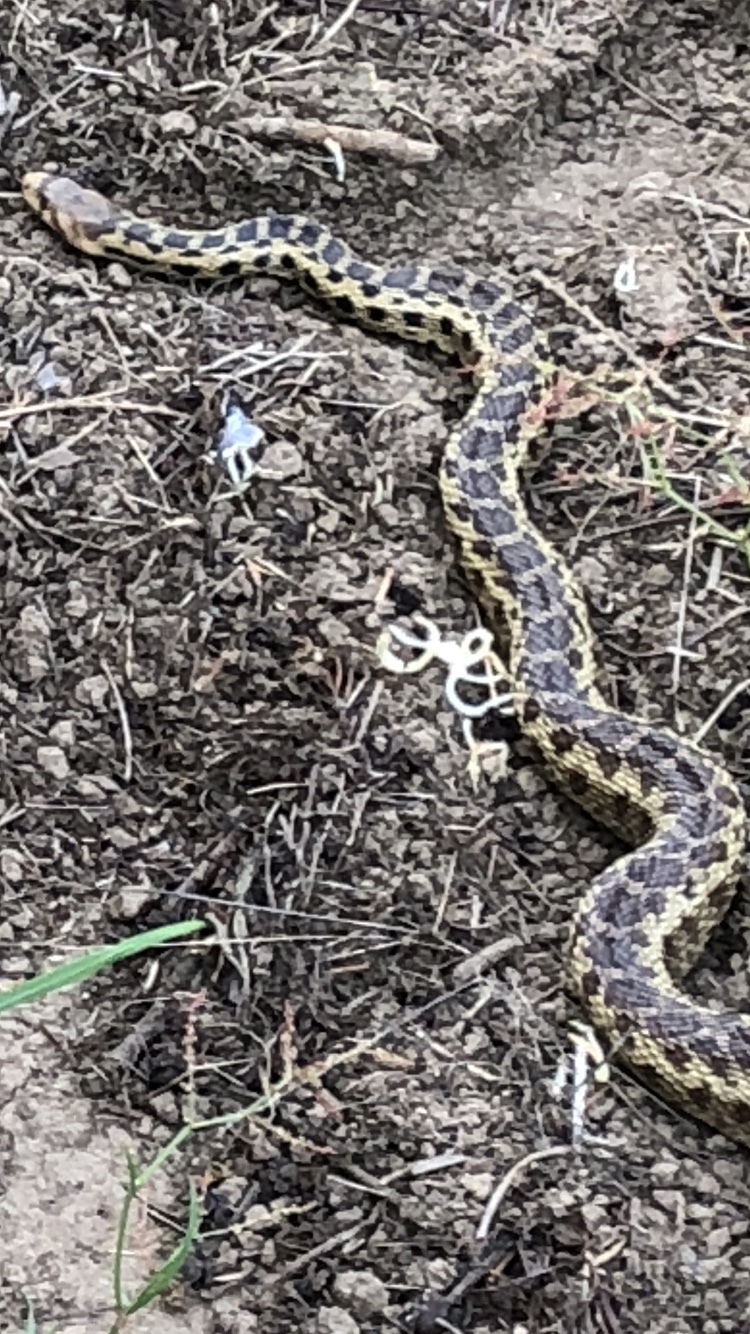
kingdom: Animalia
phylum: Chordata
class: Squamata
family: Colubridae
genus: Pituophis
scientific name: Pituophis catenifer
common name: Gopher snake
